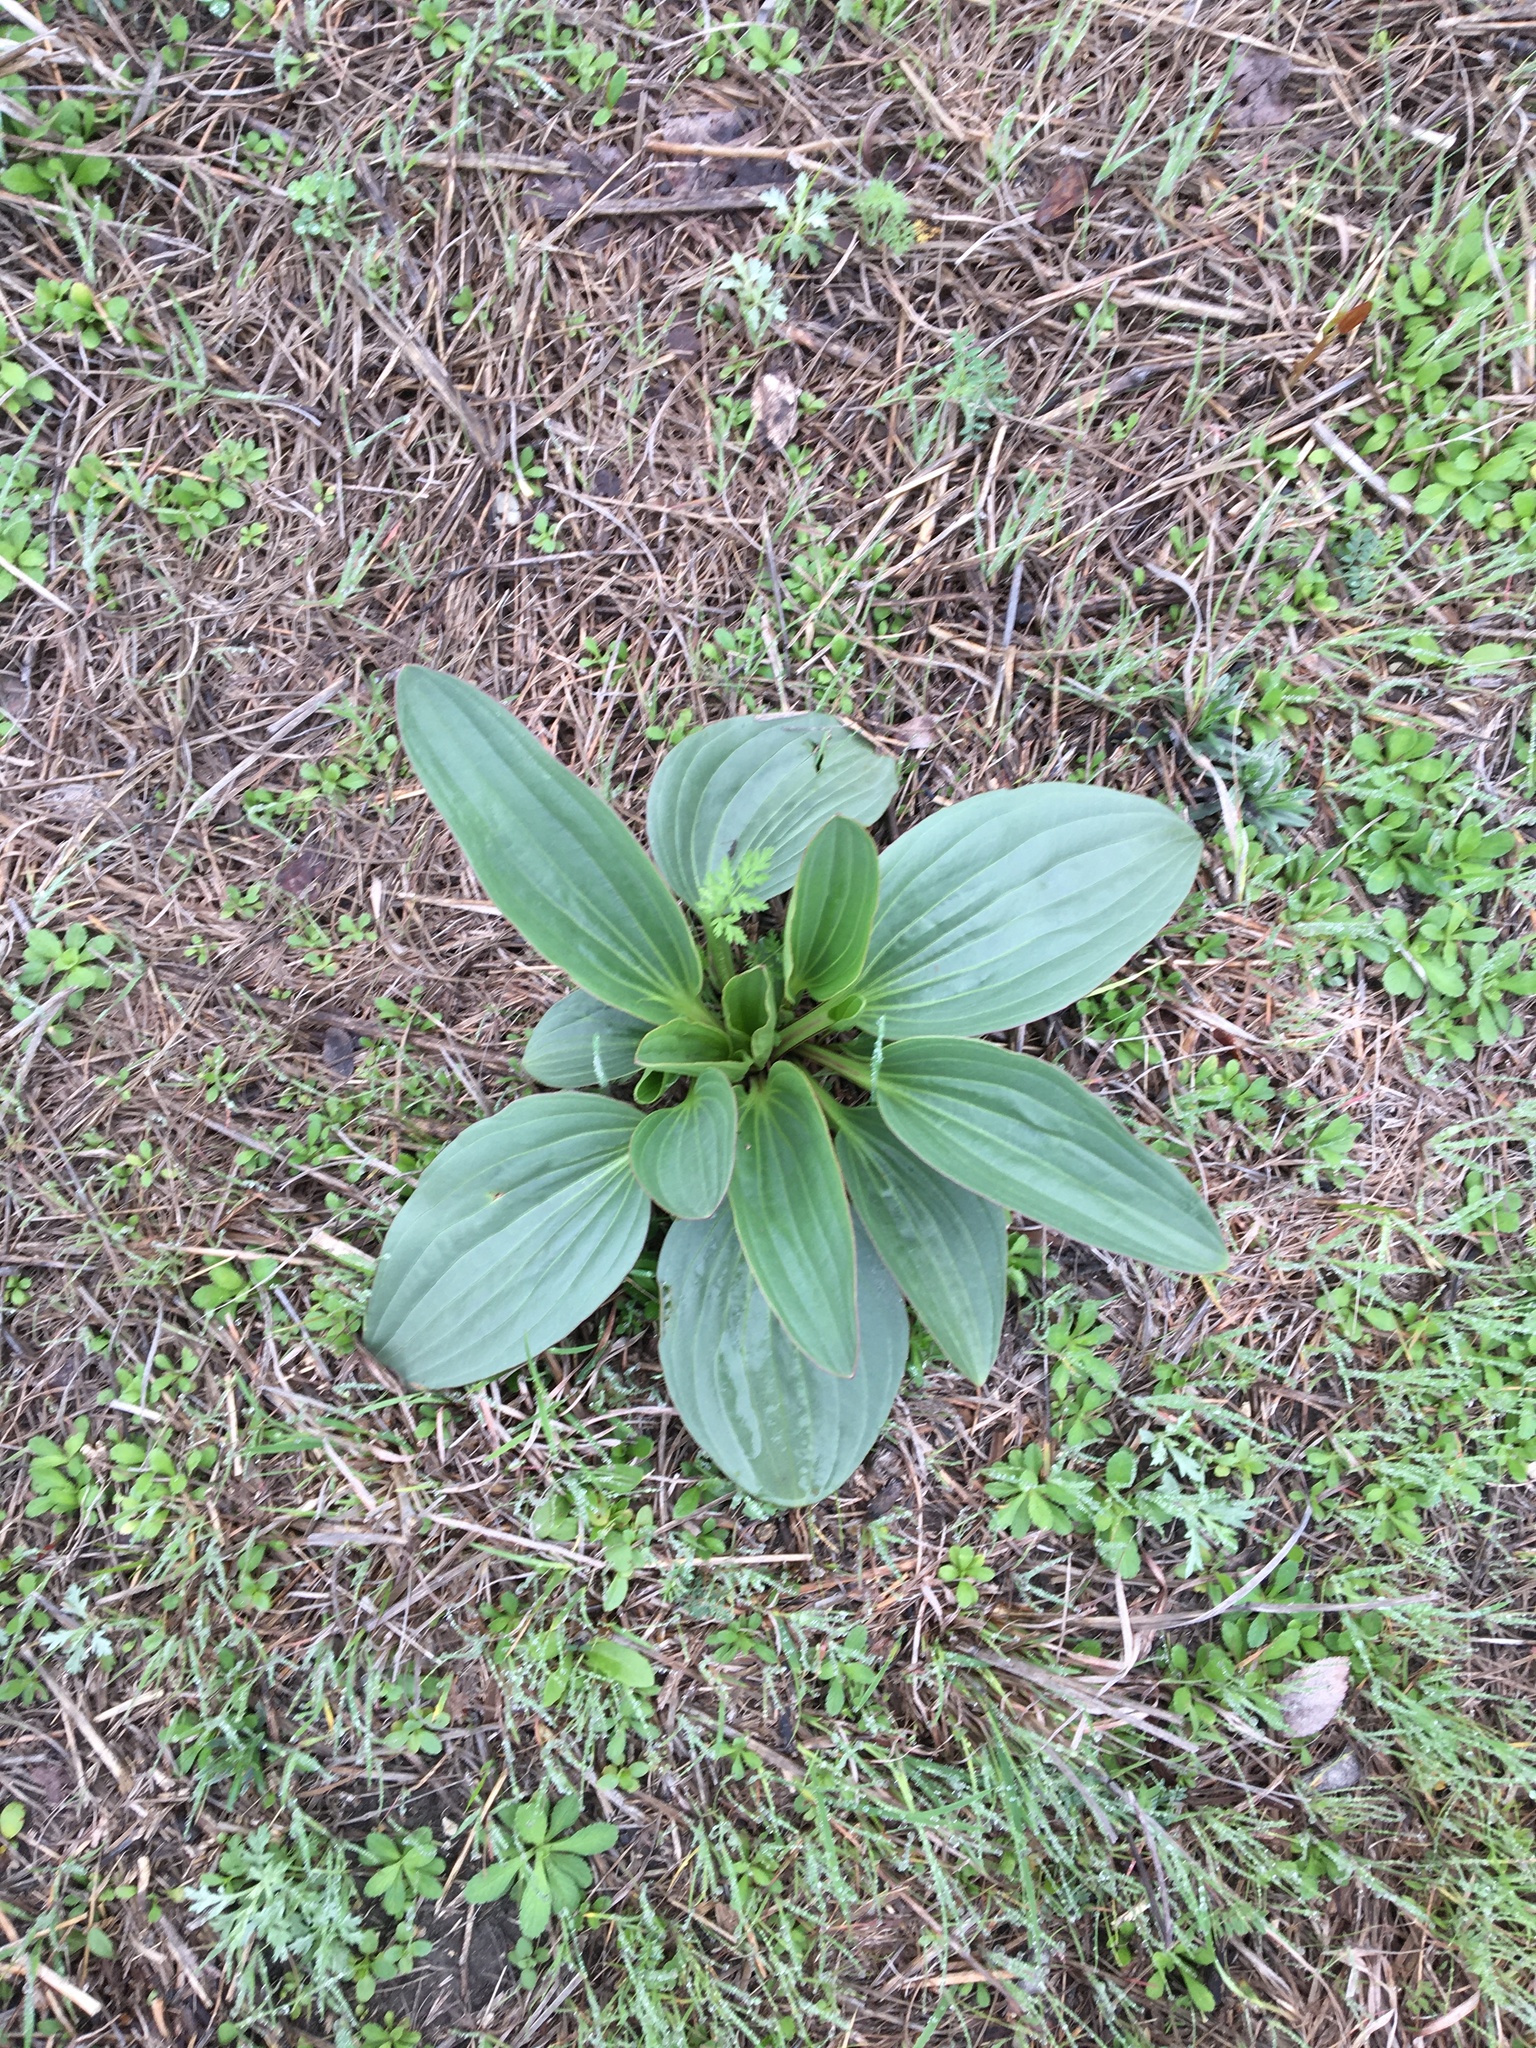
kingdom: Plantae
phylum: Tracheophyta
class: Magnoliopsida
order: Asterales
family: Asteraceae
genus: Arnoglossum
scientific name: Arnoglossum plantagineum
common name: Groove-stemmed indian-plantain
